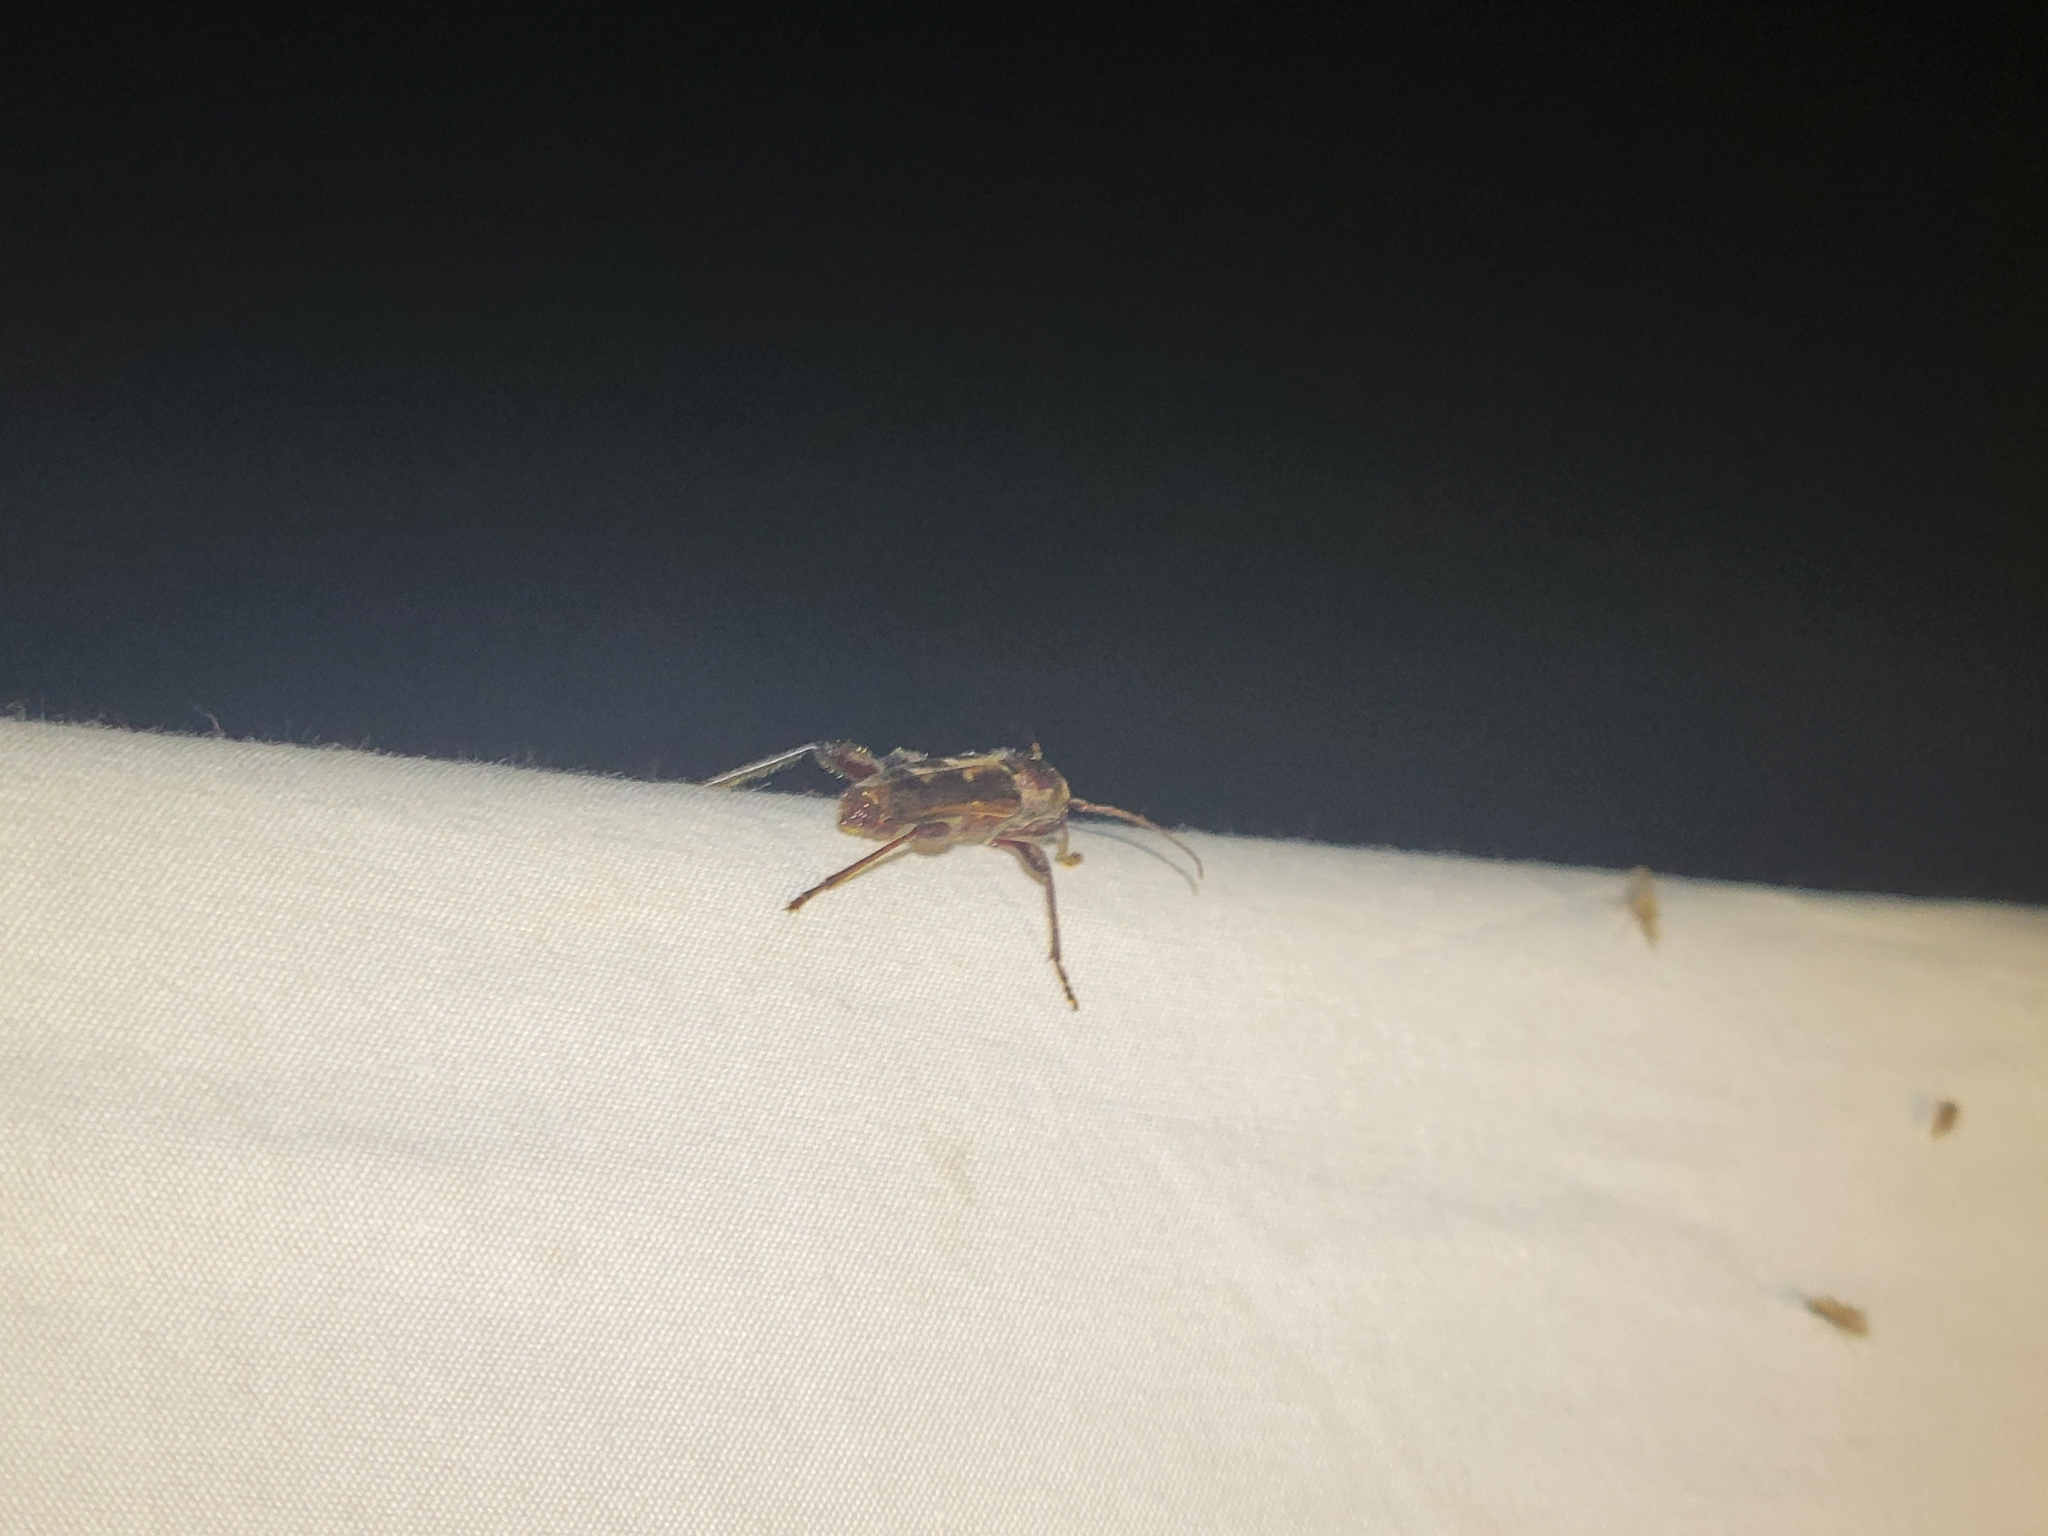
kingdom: Animalia
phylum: Arthropoda
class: Insecta
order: Coleoptera
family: Cerambycidae
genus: Xylotrechus
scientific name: Xylotrechus sagittatus
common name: Arrowhead borer
